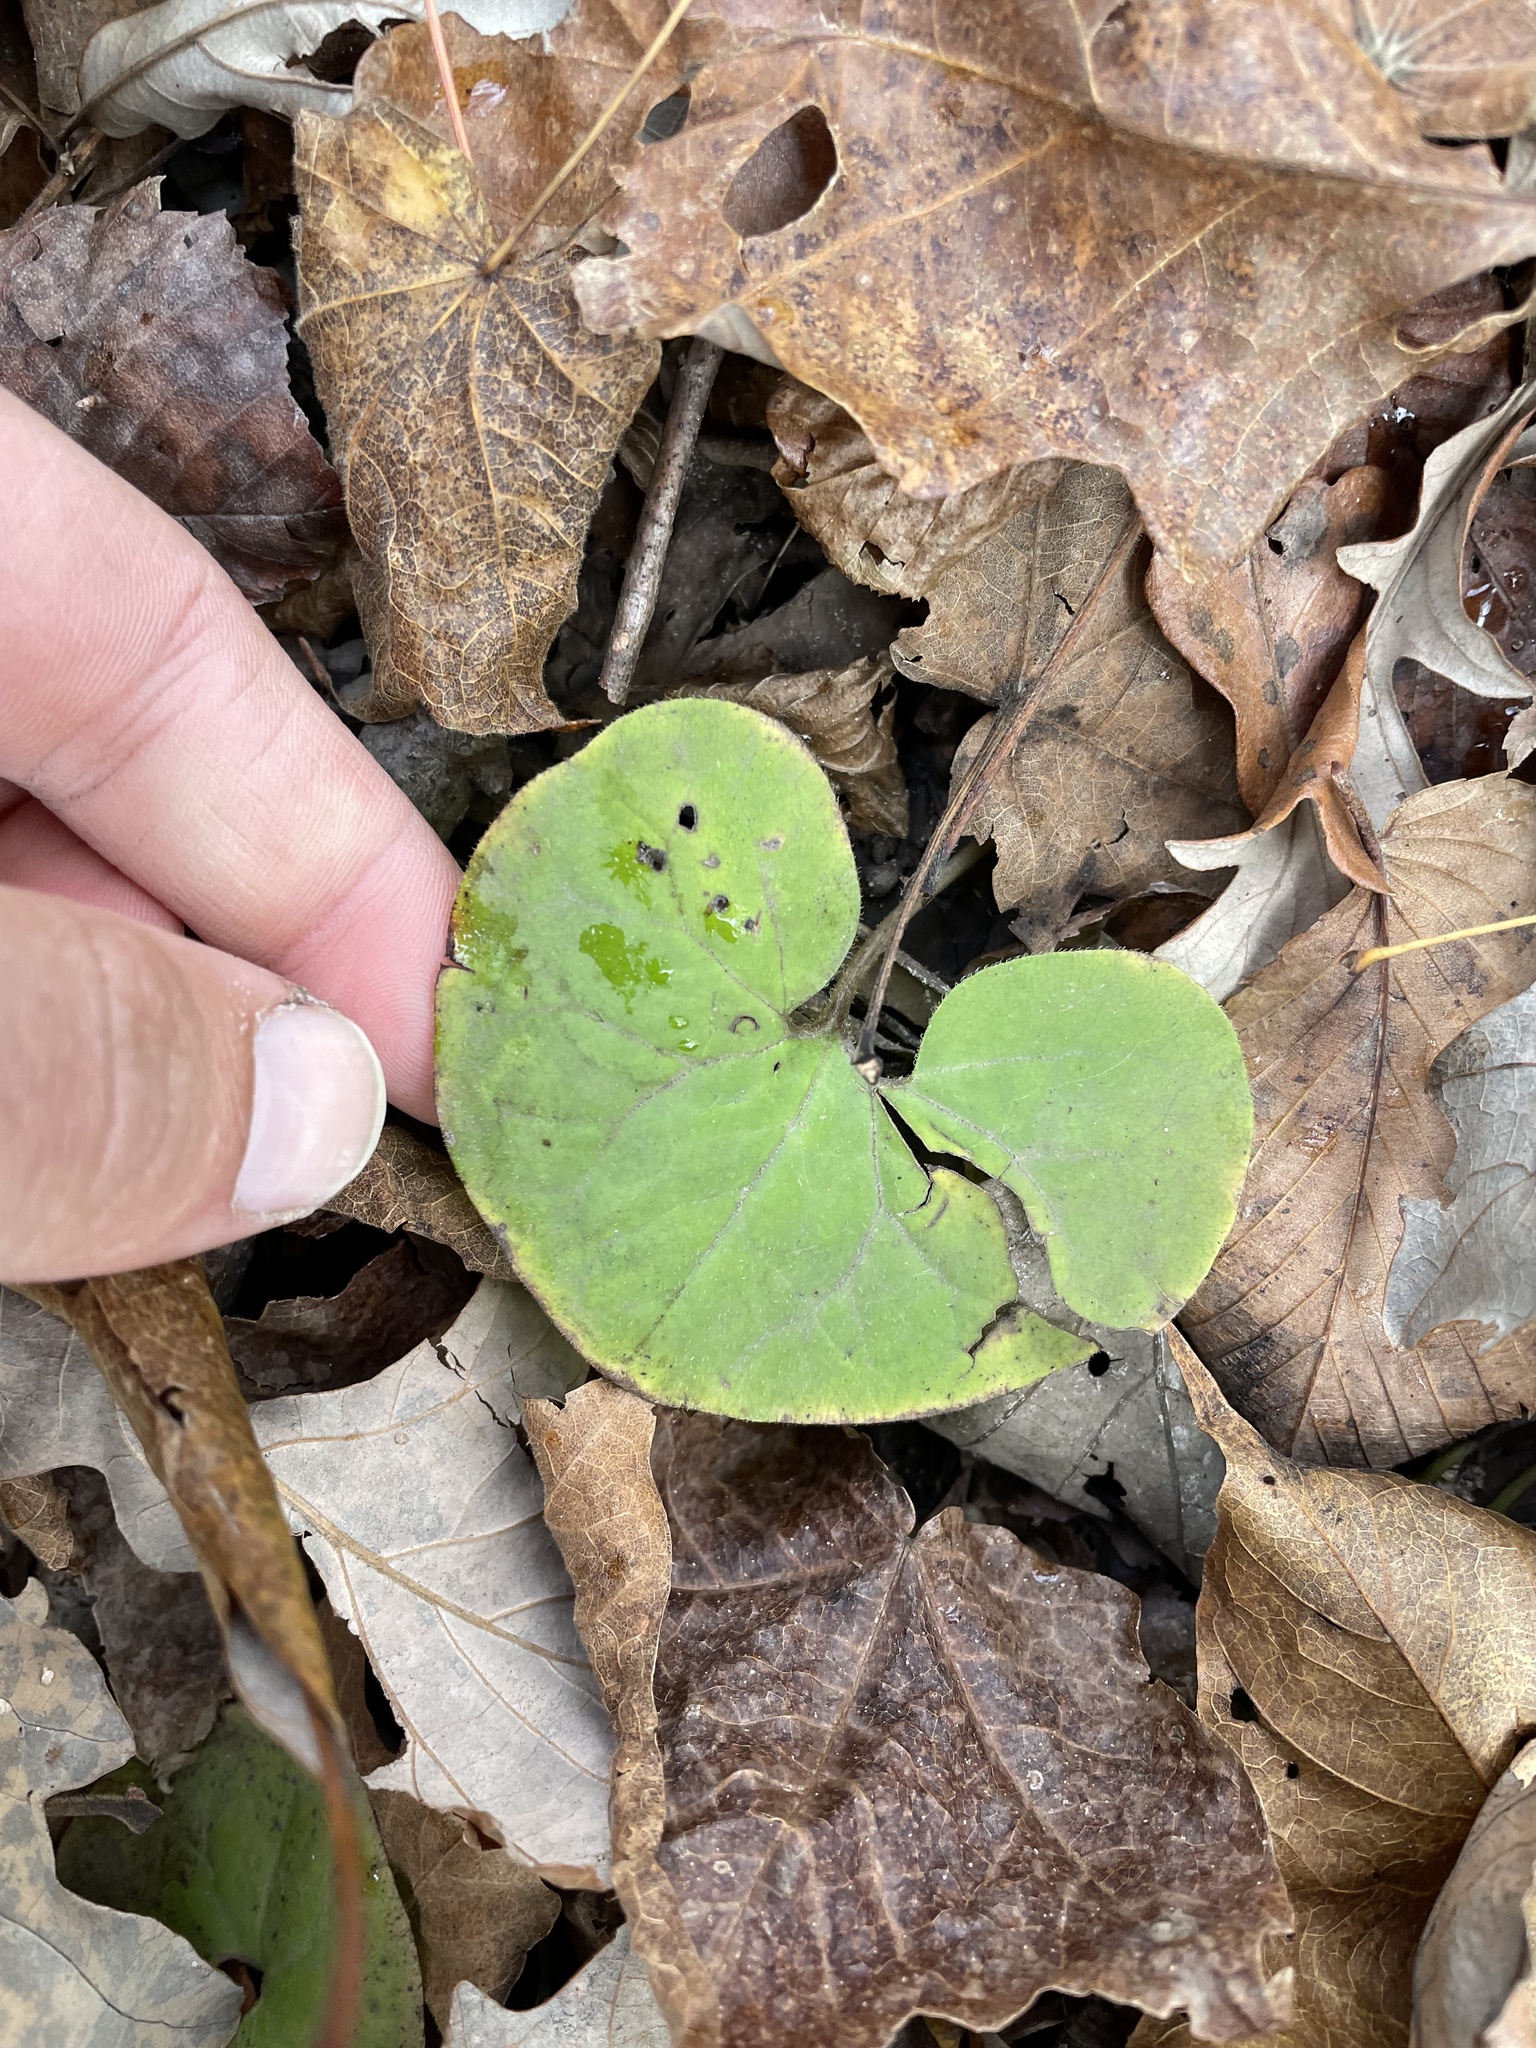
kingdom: Plantae
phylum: Tracheophyta
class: Magnoliopsida
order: Piperales
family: Aristolochiaceae
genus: Asarum
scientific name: Asarum canadense
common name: Wild ginger
